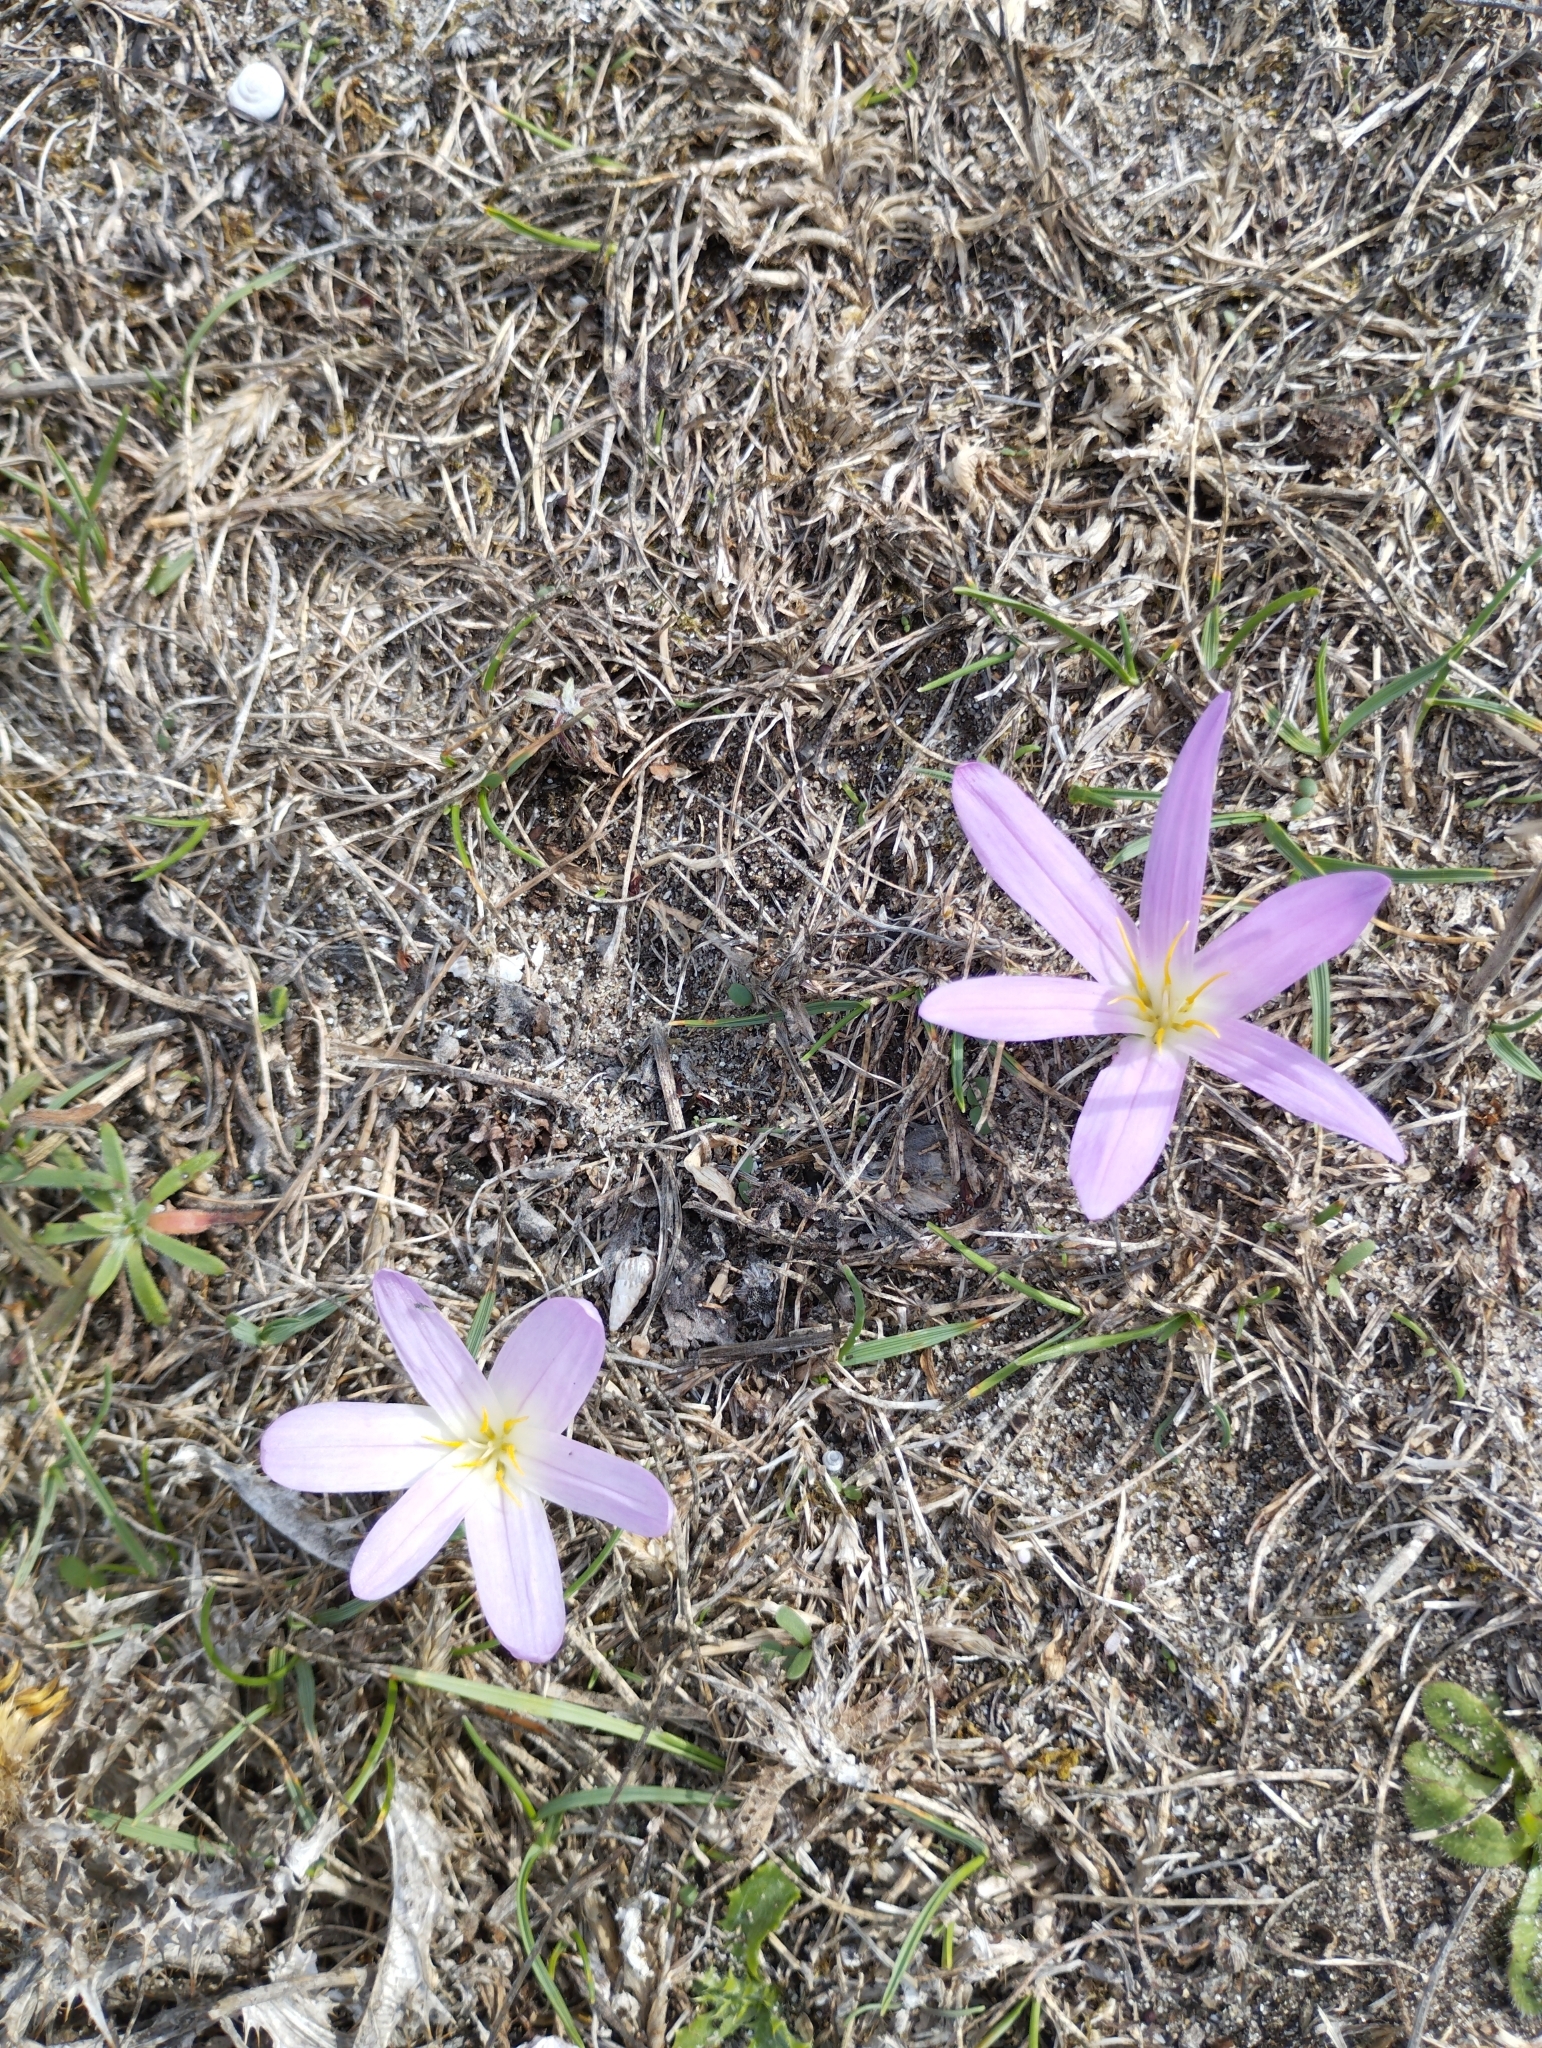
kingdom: Plantae
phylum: Tracheophyta
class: Liliopsida
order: Liliales
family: Colchicaceae
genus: Colchicum
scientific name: Colchicum montanum
